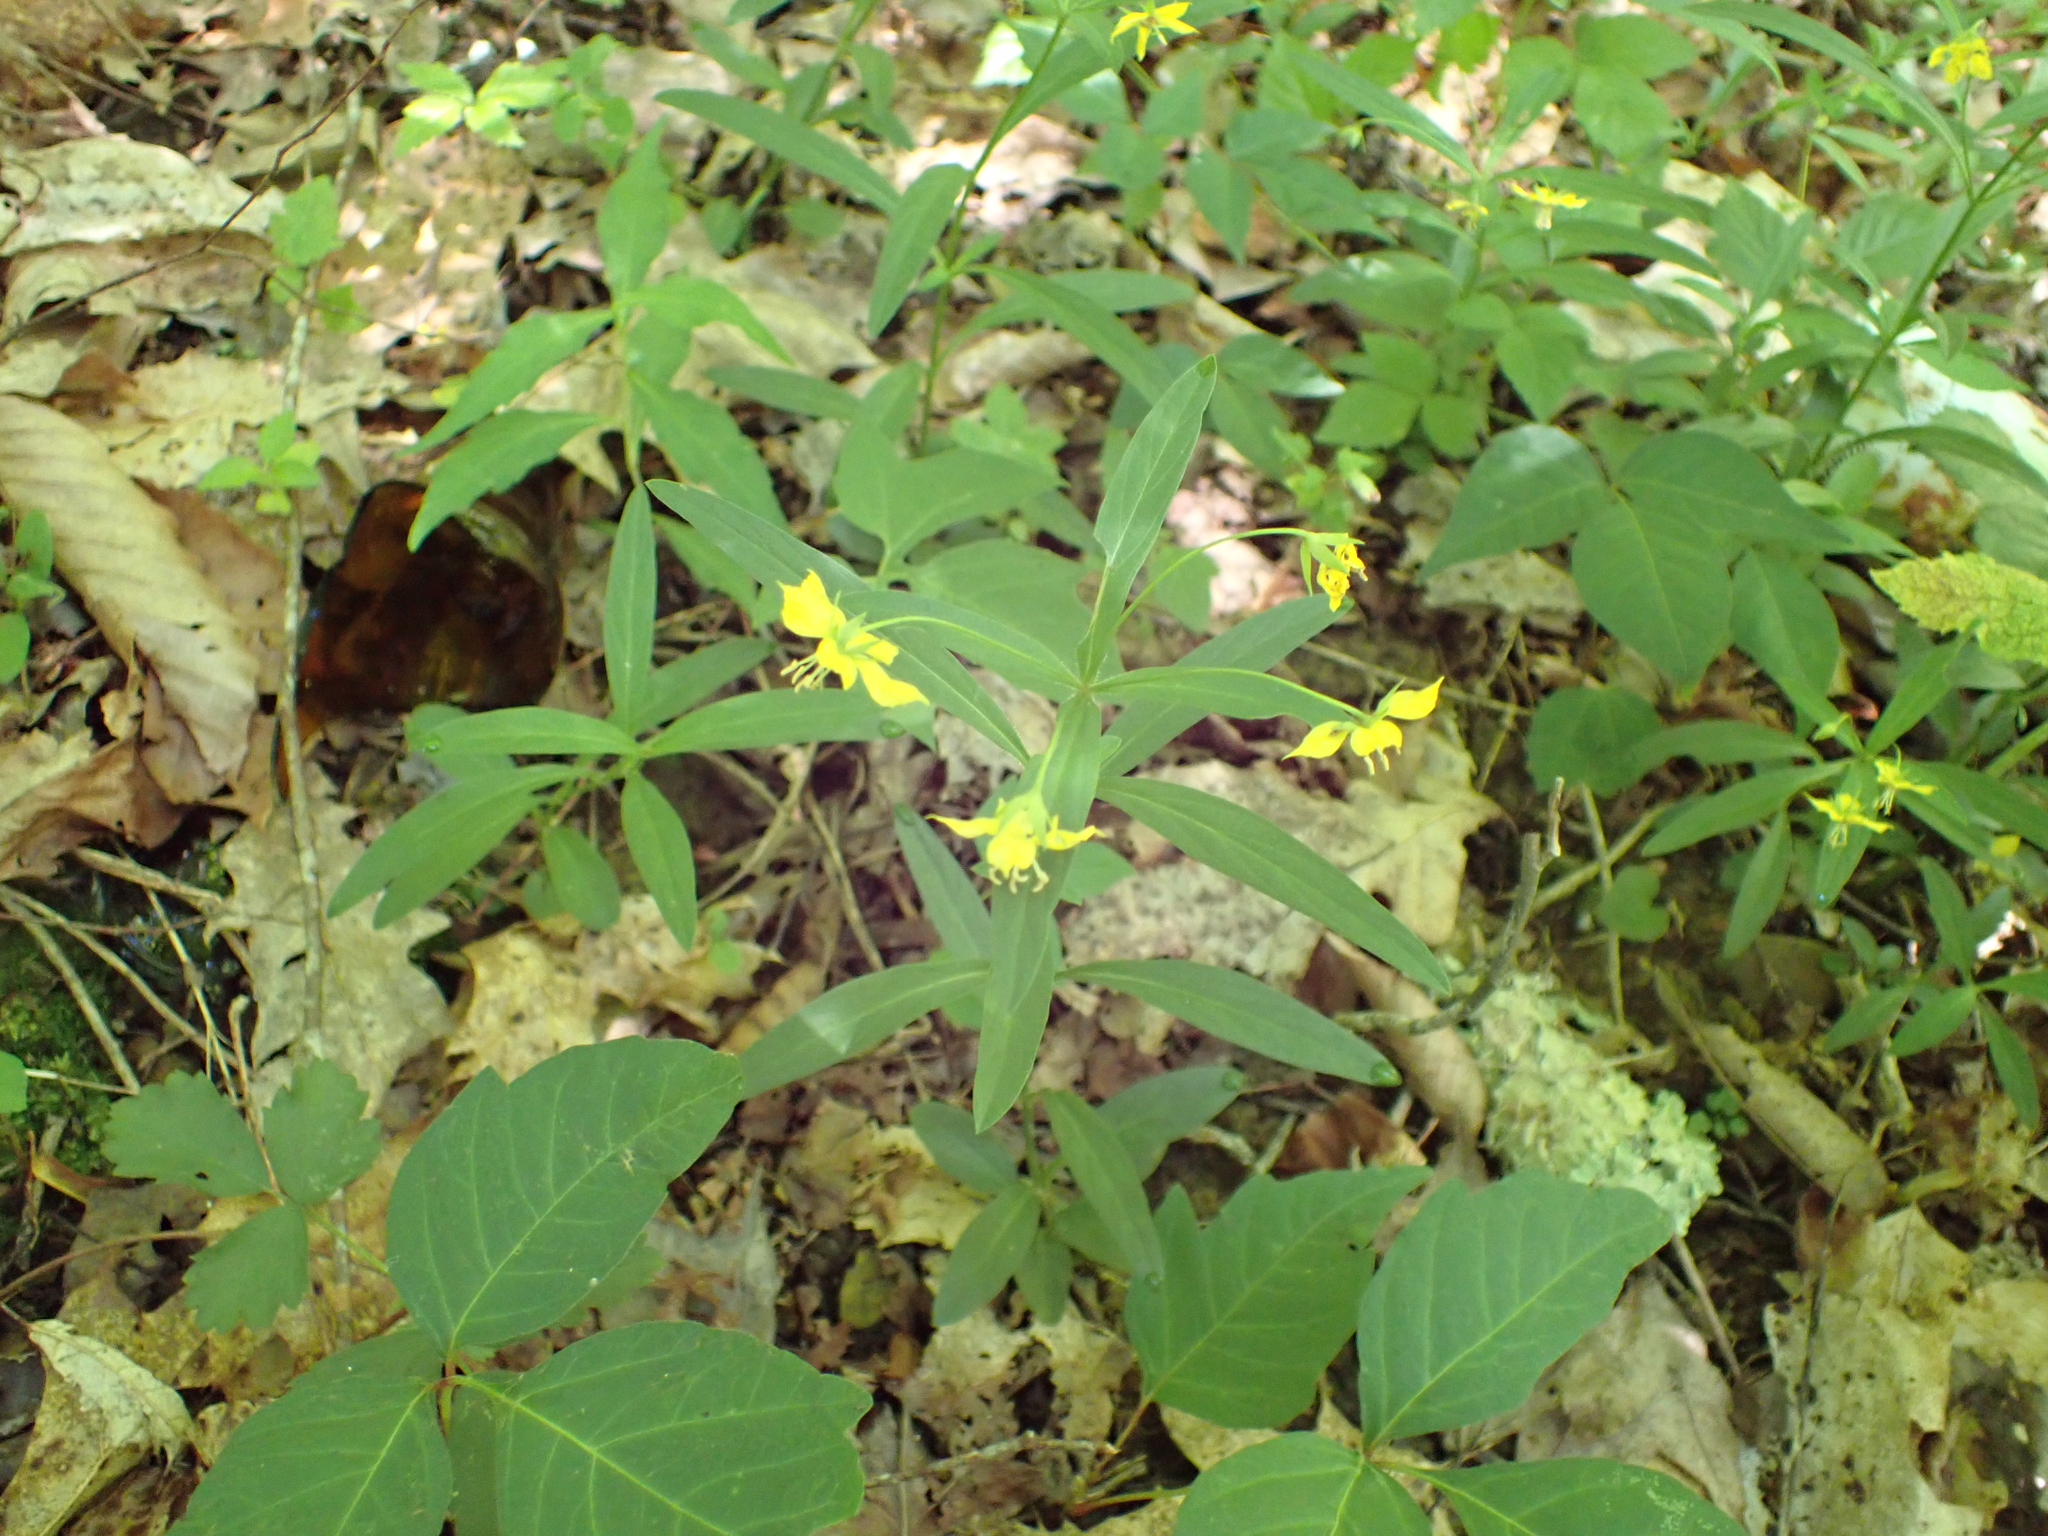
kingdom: Plantae
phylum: Tracheophyta
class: Magnoliopsida
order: Ericales
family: Primulaceae
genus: Lysimachia
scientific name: Lysimachia lanceolata
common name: Lance-leaved loosestrife
